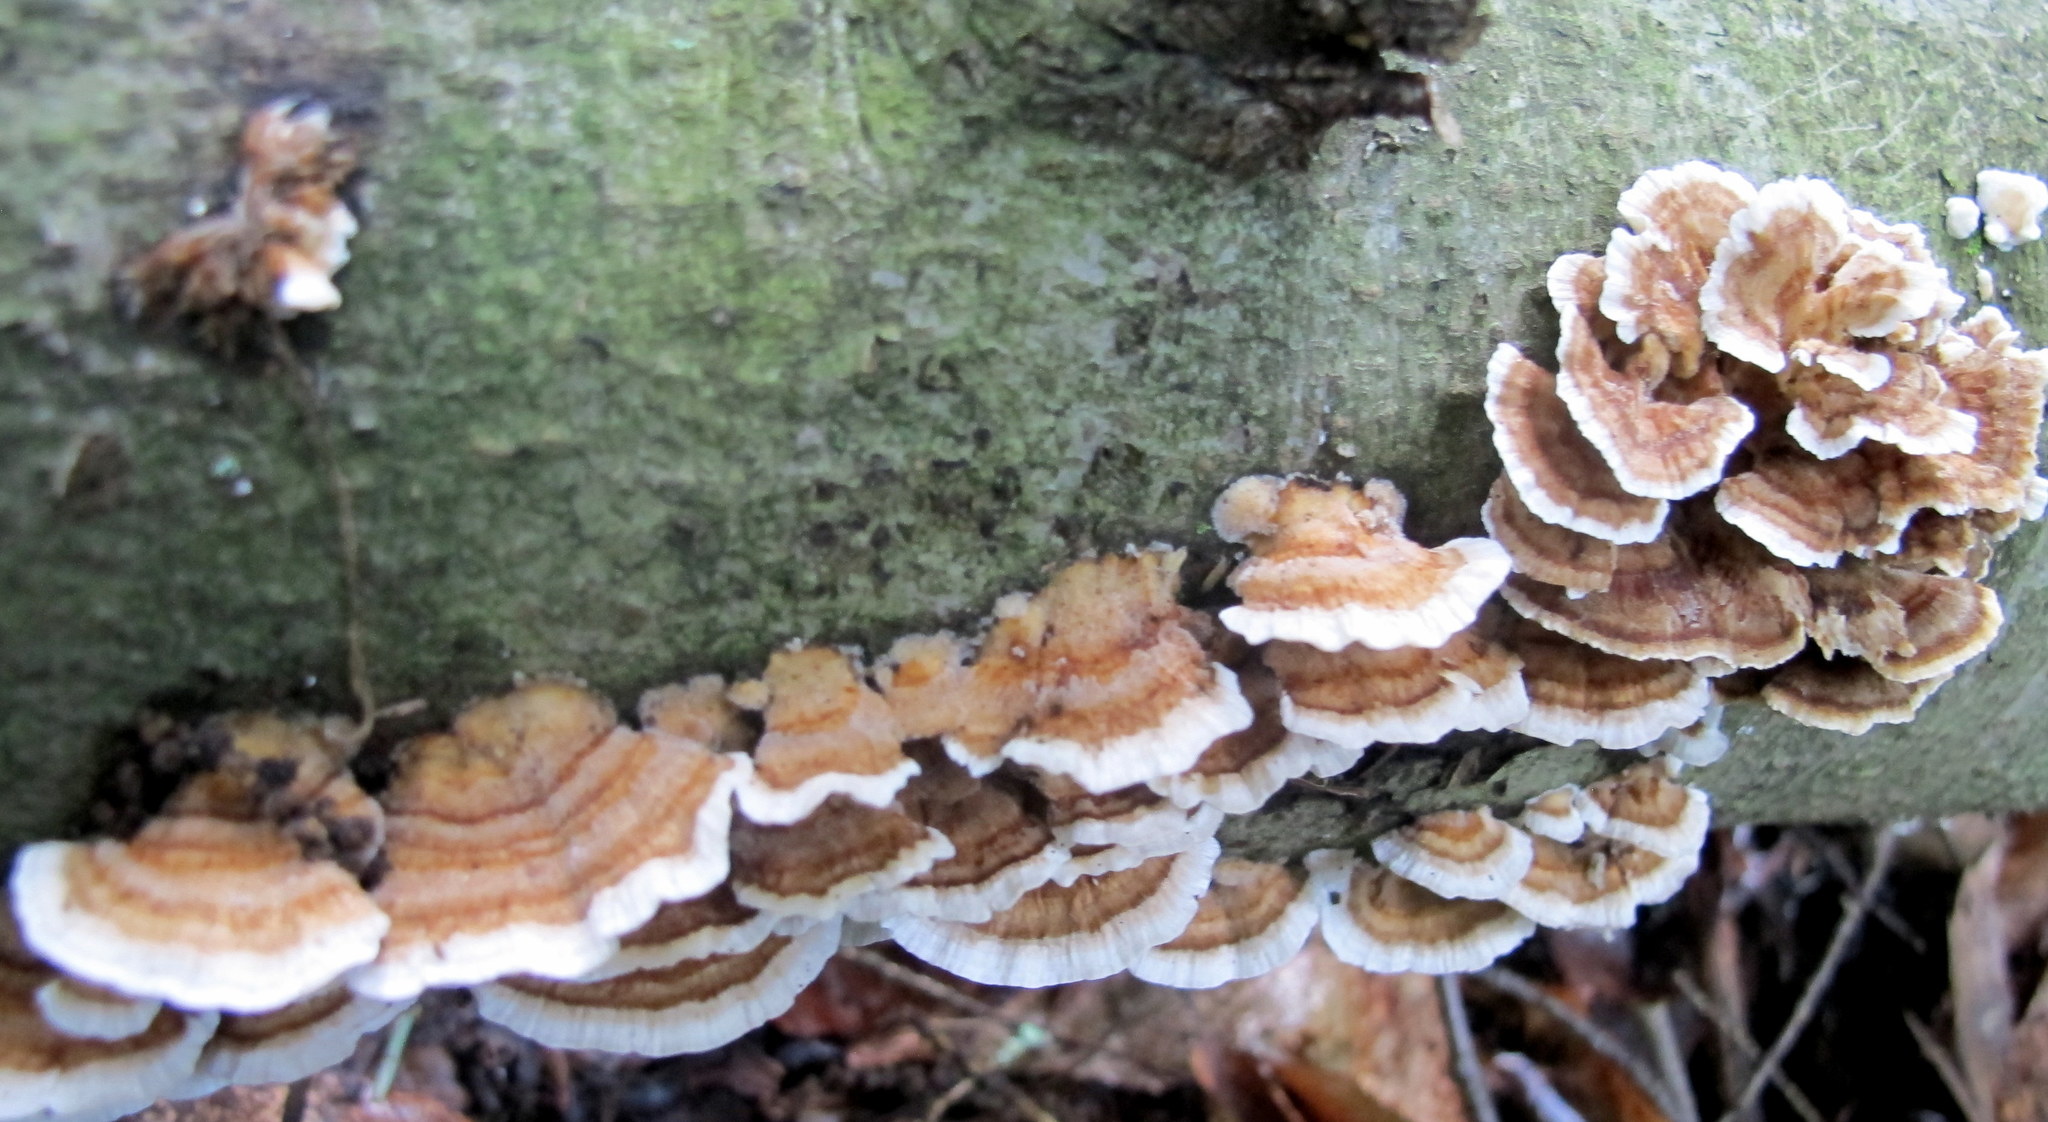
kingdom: Fungi
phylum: Basidiomycota
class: Agaricomycetes
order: Polyporales
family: Polyporaceae
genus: Trametes
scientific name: Trametes versicolor
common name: Turkeytail
